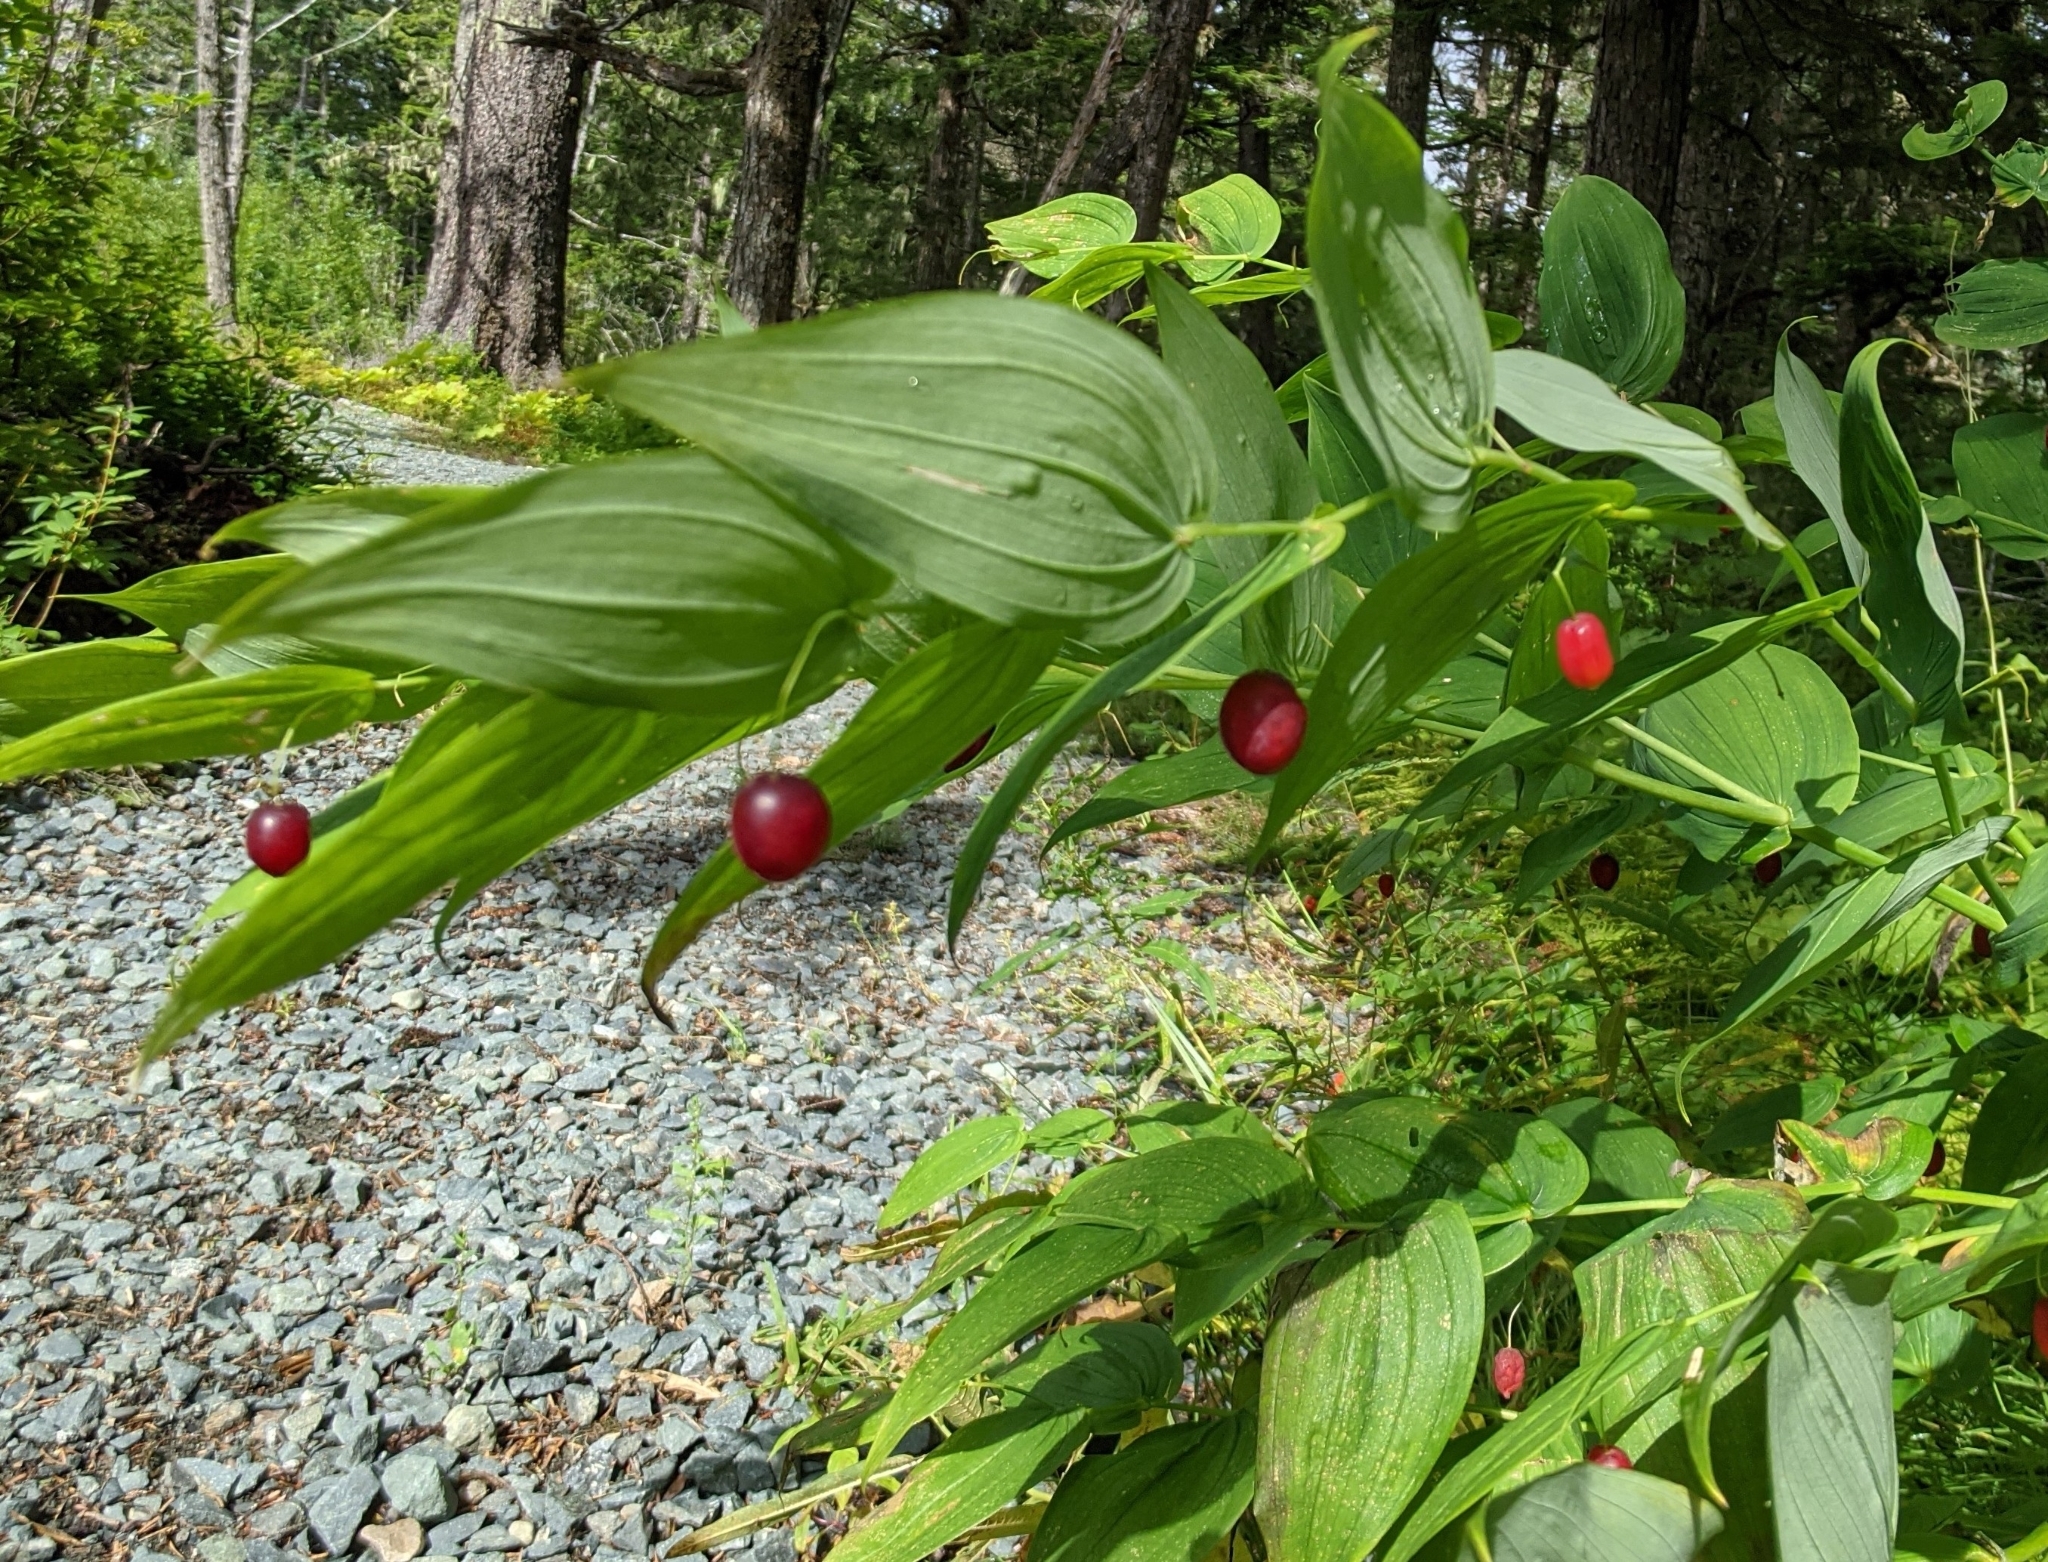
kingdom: Plantae
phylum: Tracheophyta
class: Liliopsida
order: Liliales
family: Liliaceae
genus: Streptopus
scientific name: Streptopus amplexifolius
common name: Clasp twisted stalk
